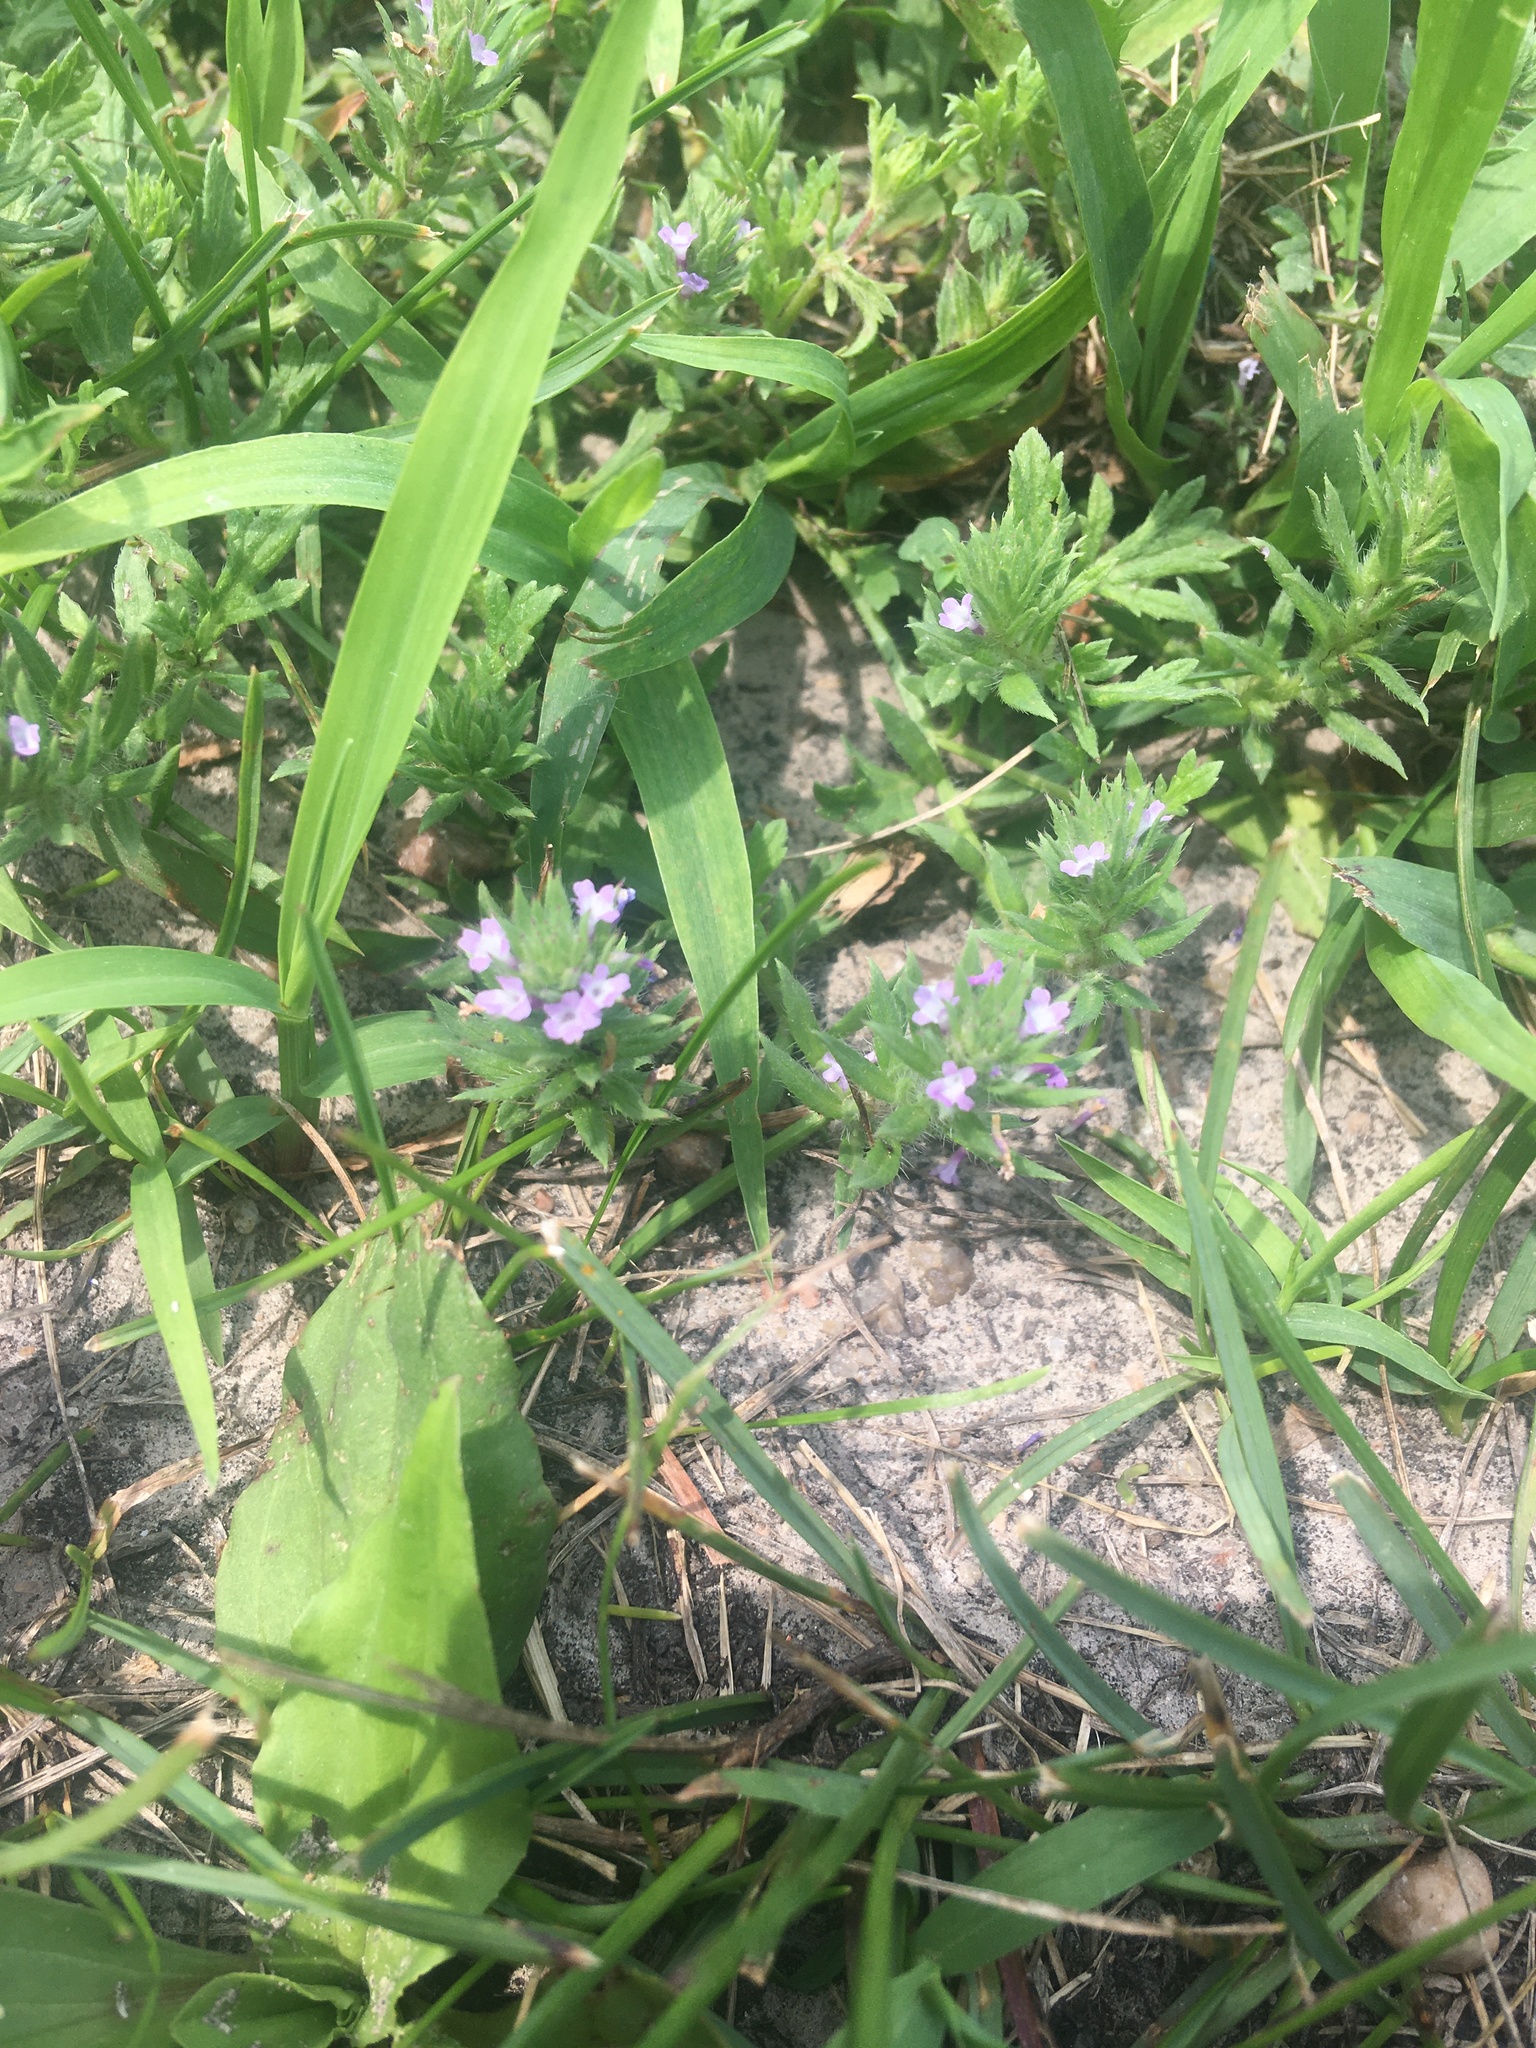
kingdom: Plantae
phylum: Tracheophyta
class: Magnoliopsida
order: Lamiales
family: Verbenaceae
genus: Verbena
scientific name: Verbena bracteata
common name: Bracted vervain
